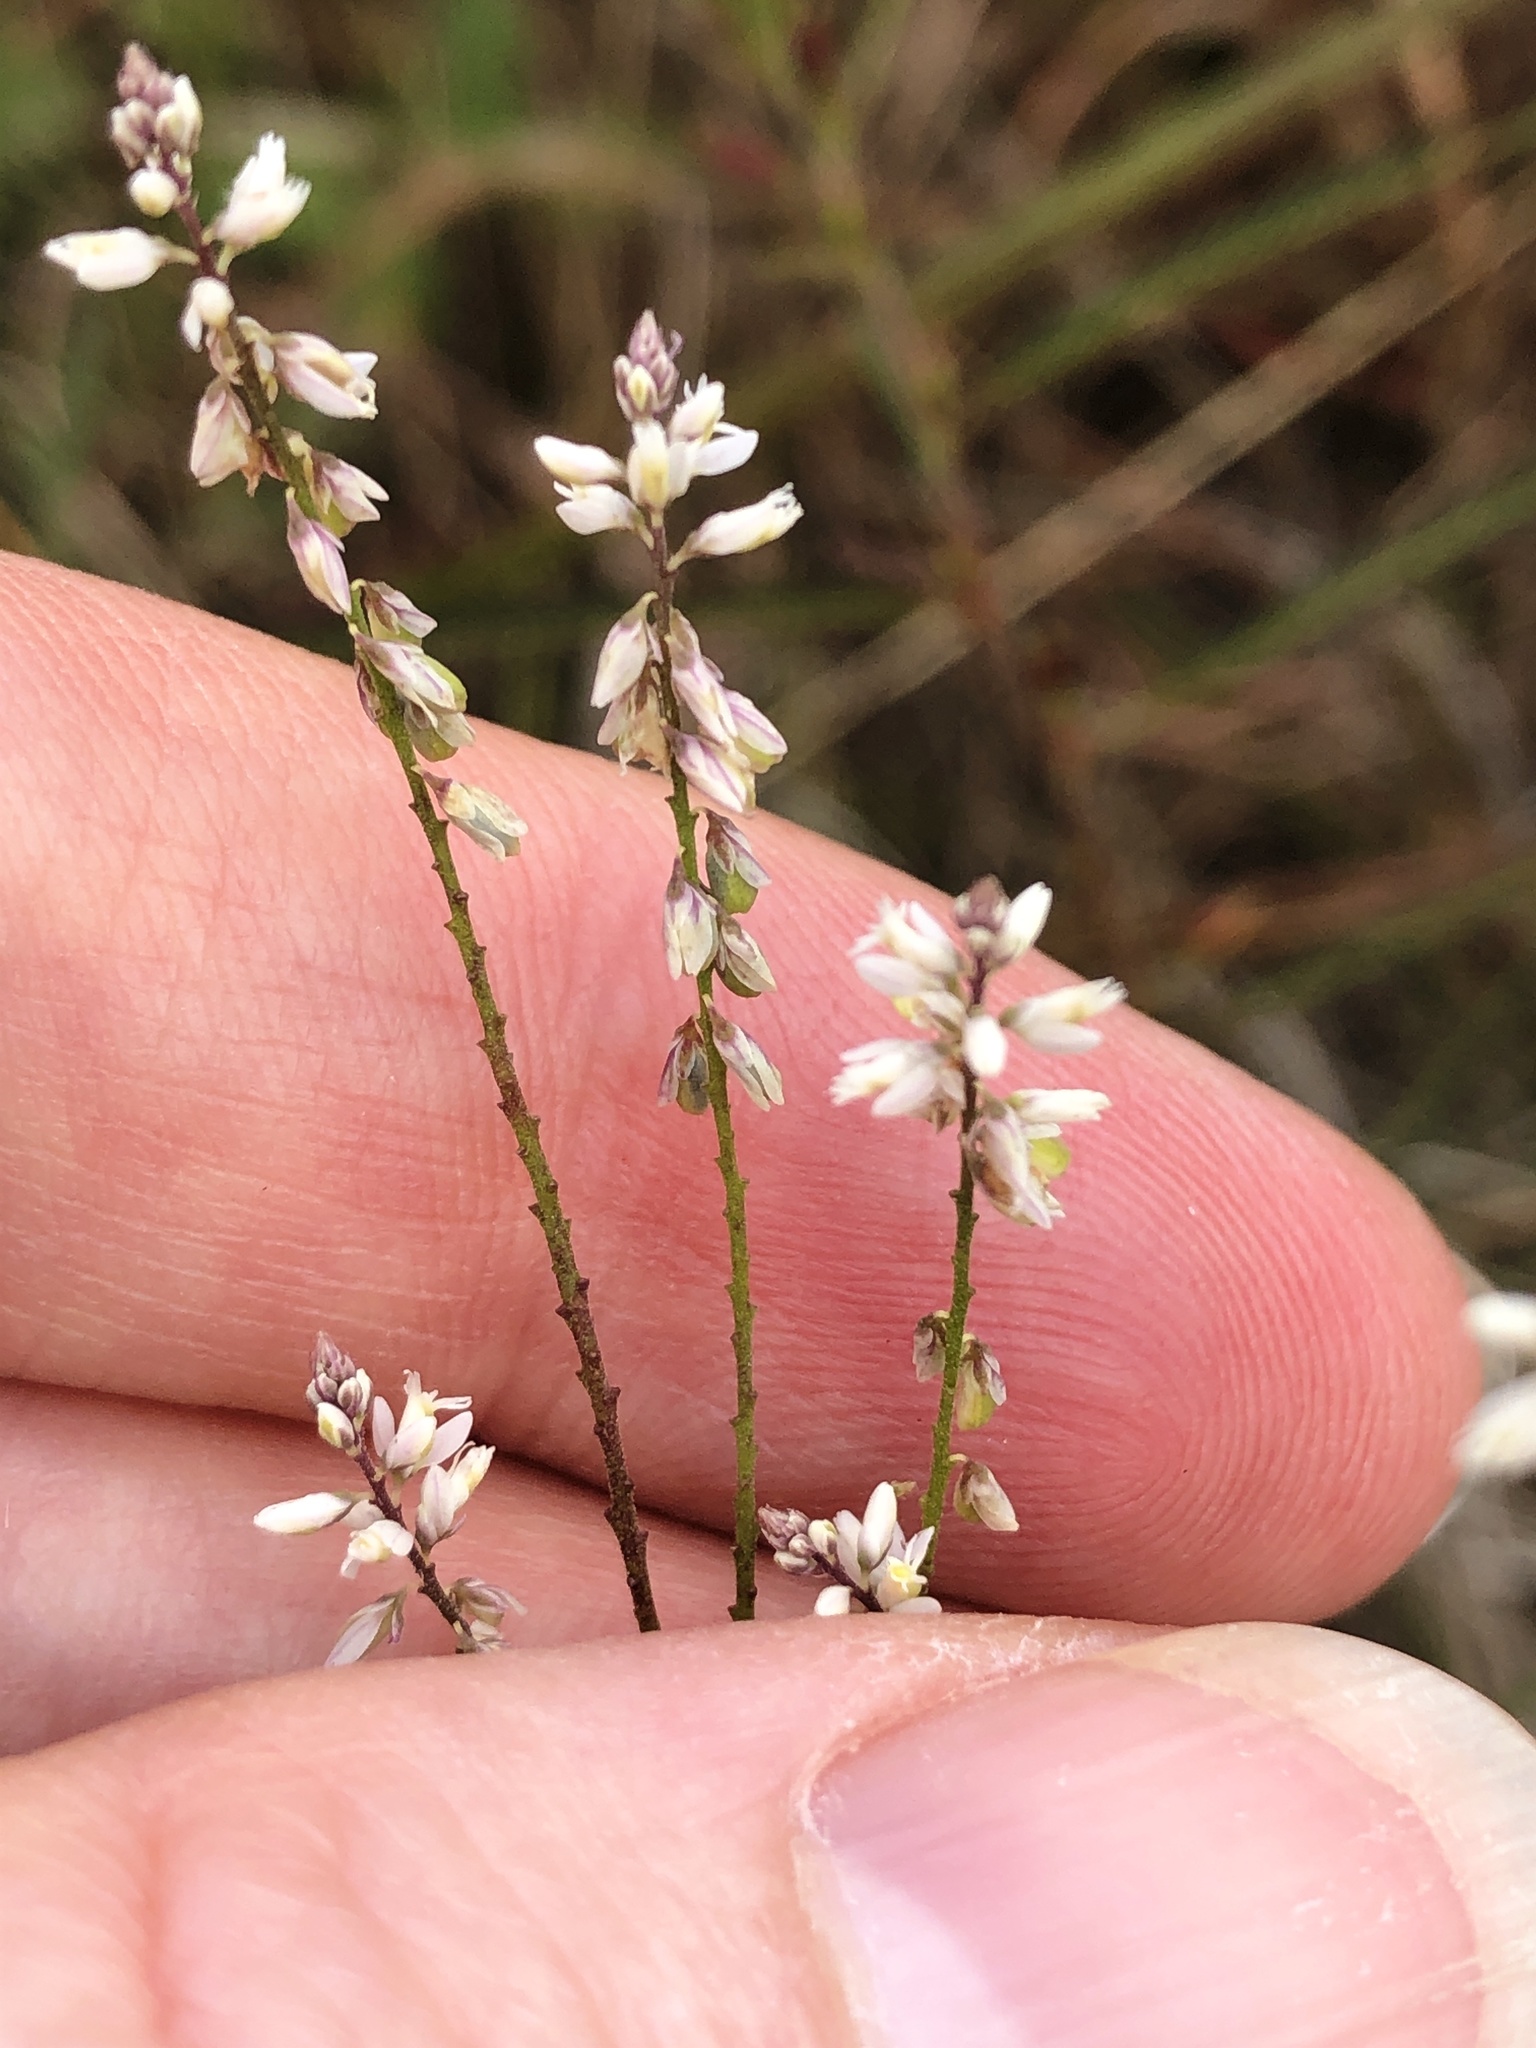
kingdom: Plantae
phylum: Tracheophyta
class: Magnoliopsida
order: Fabales
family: Polygalaceae
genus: Polygala
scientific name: Polygala paniculata
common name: Orosne
